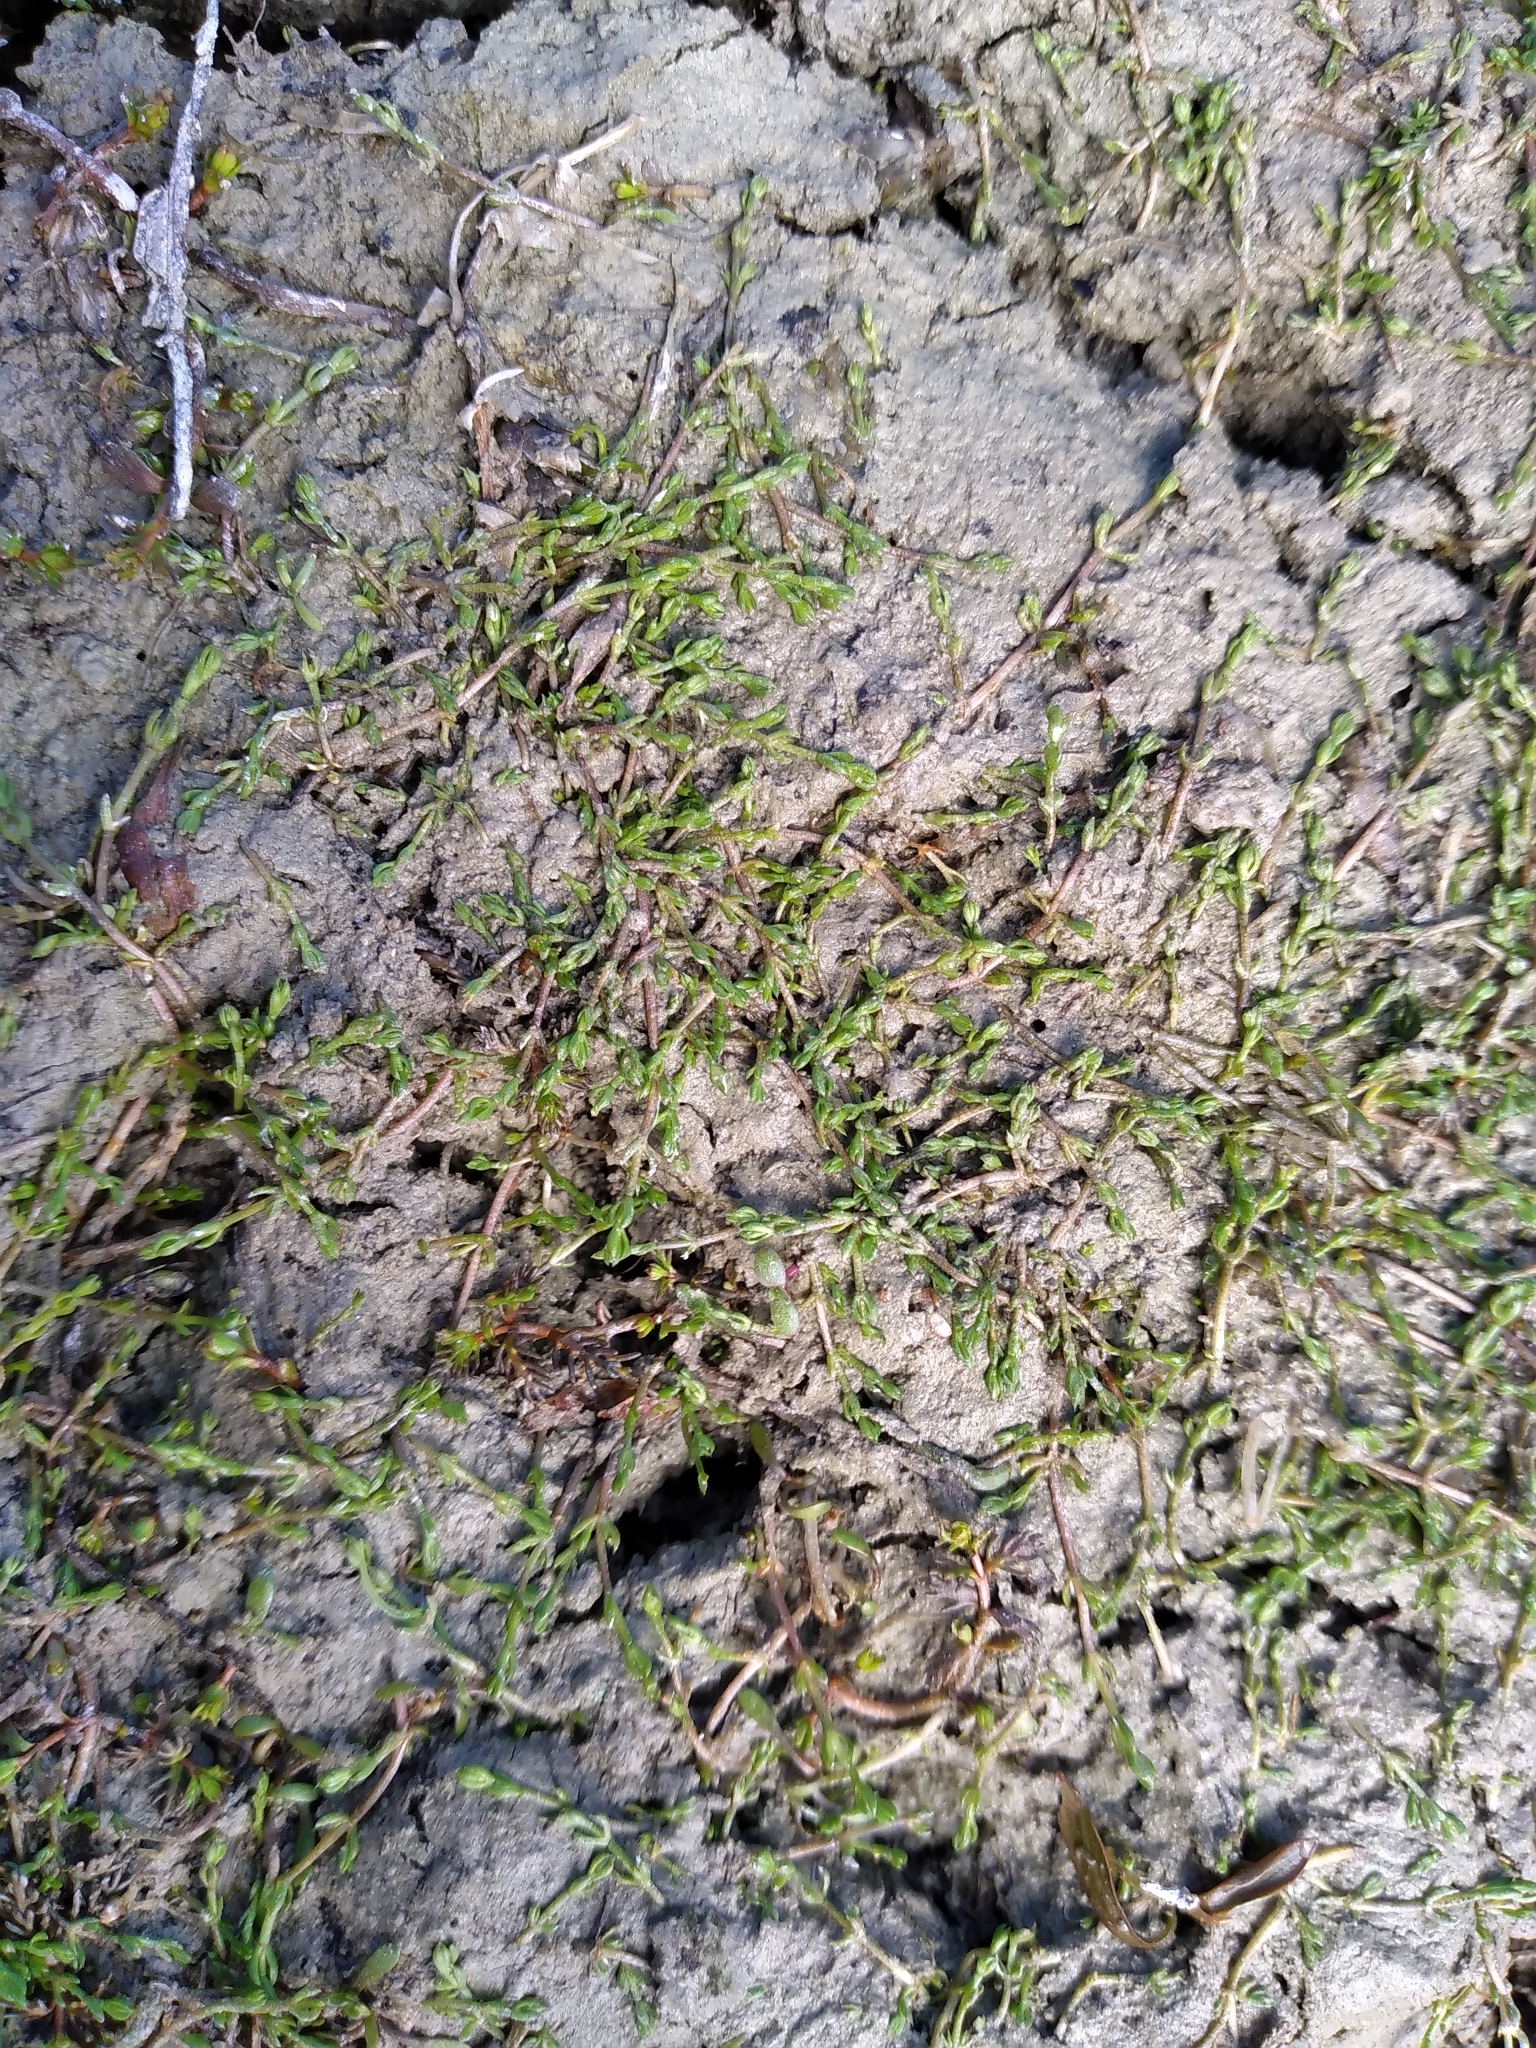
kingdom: Plantae
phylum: Tracheophyta
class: Magnoliopsida
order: Saxifragales
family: Crassulaceae
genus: Crassula
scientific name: Crassula sinclairii
